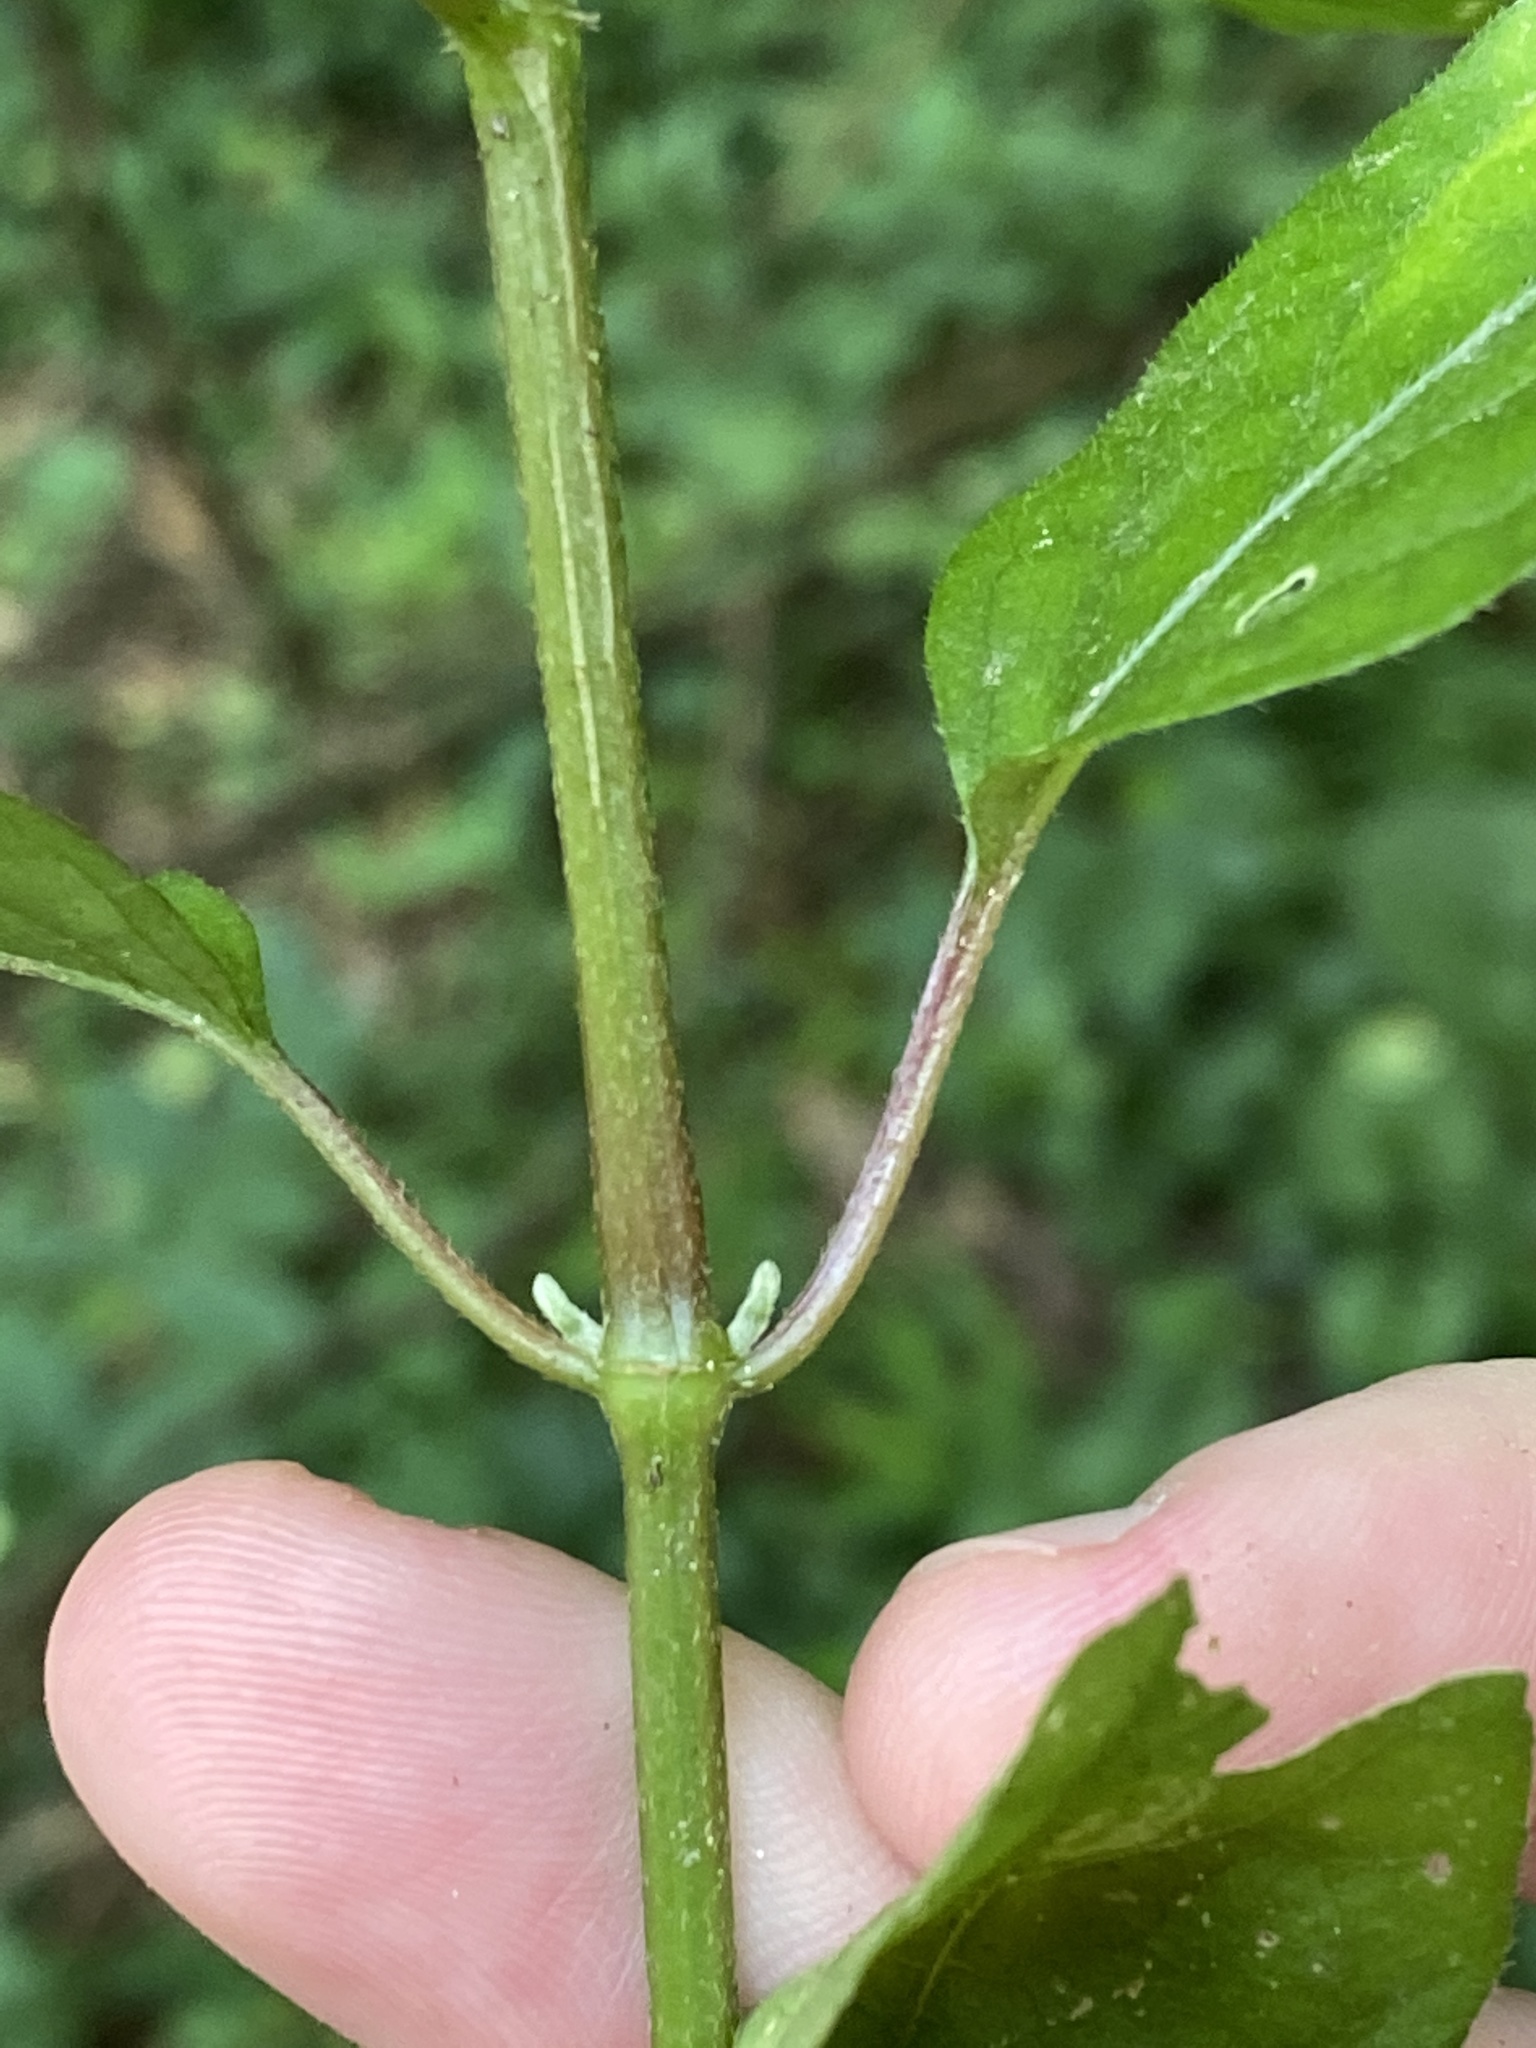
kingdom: Plantae
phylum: Tracheophyta
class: Magnoliopsida
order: Caryophyllales
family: Amaranthaceae
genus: Achyranthes
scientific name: Achyranthes bidentata
